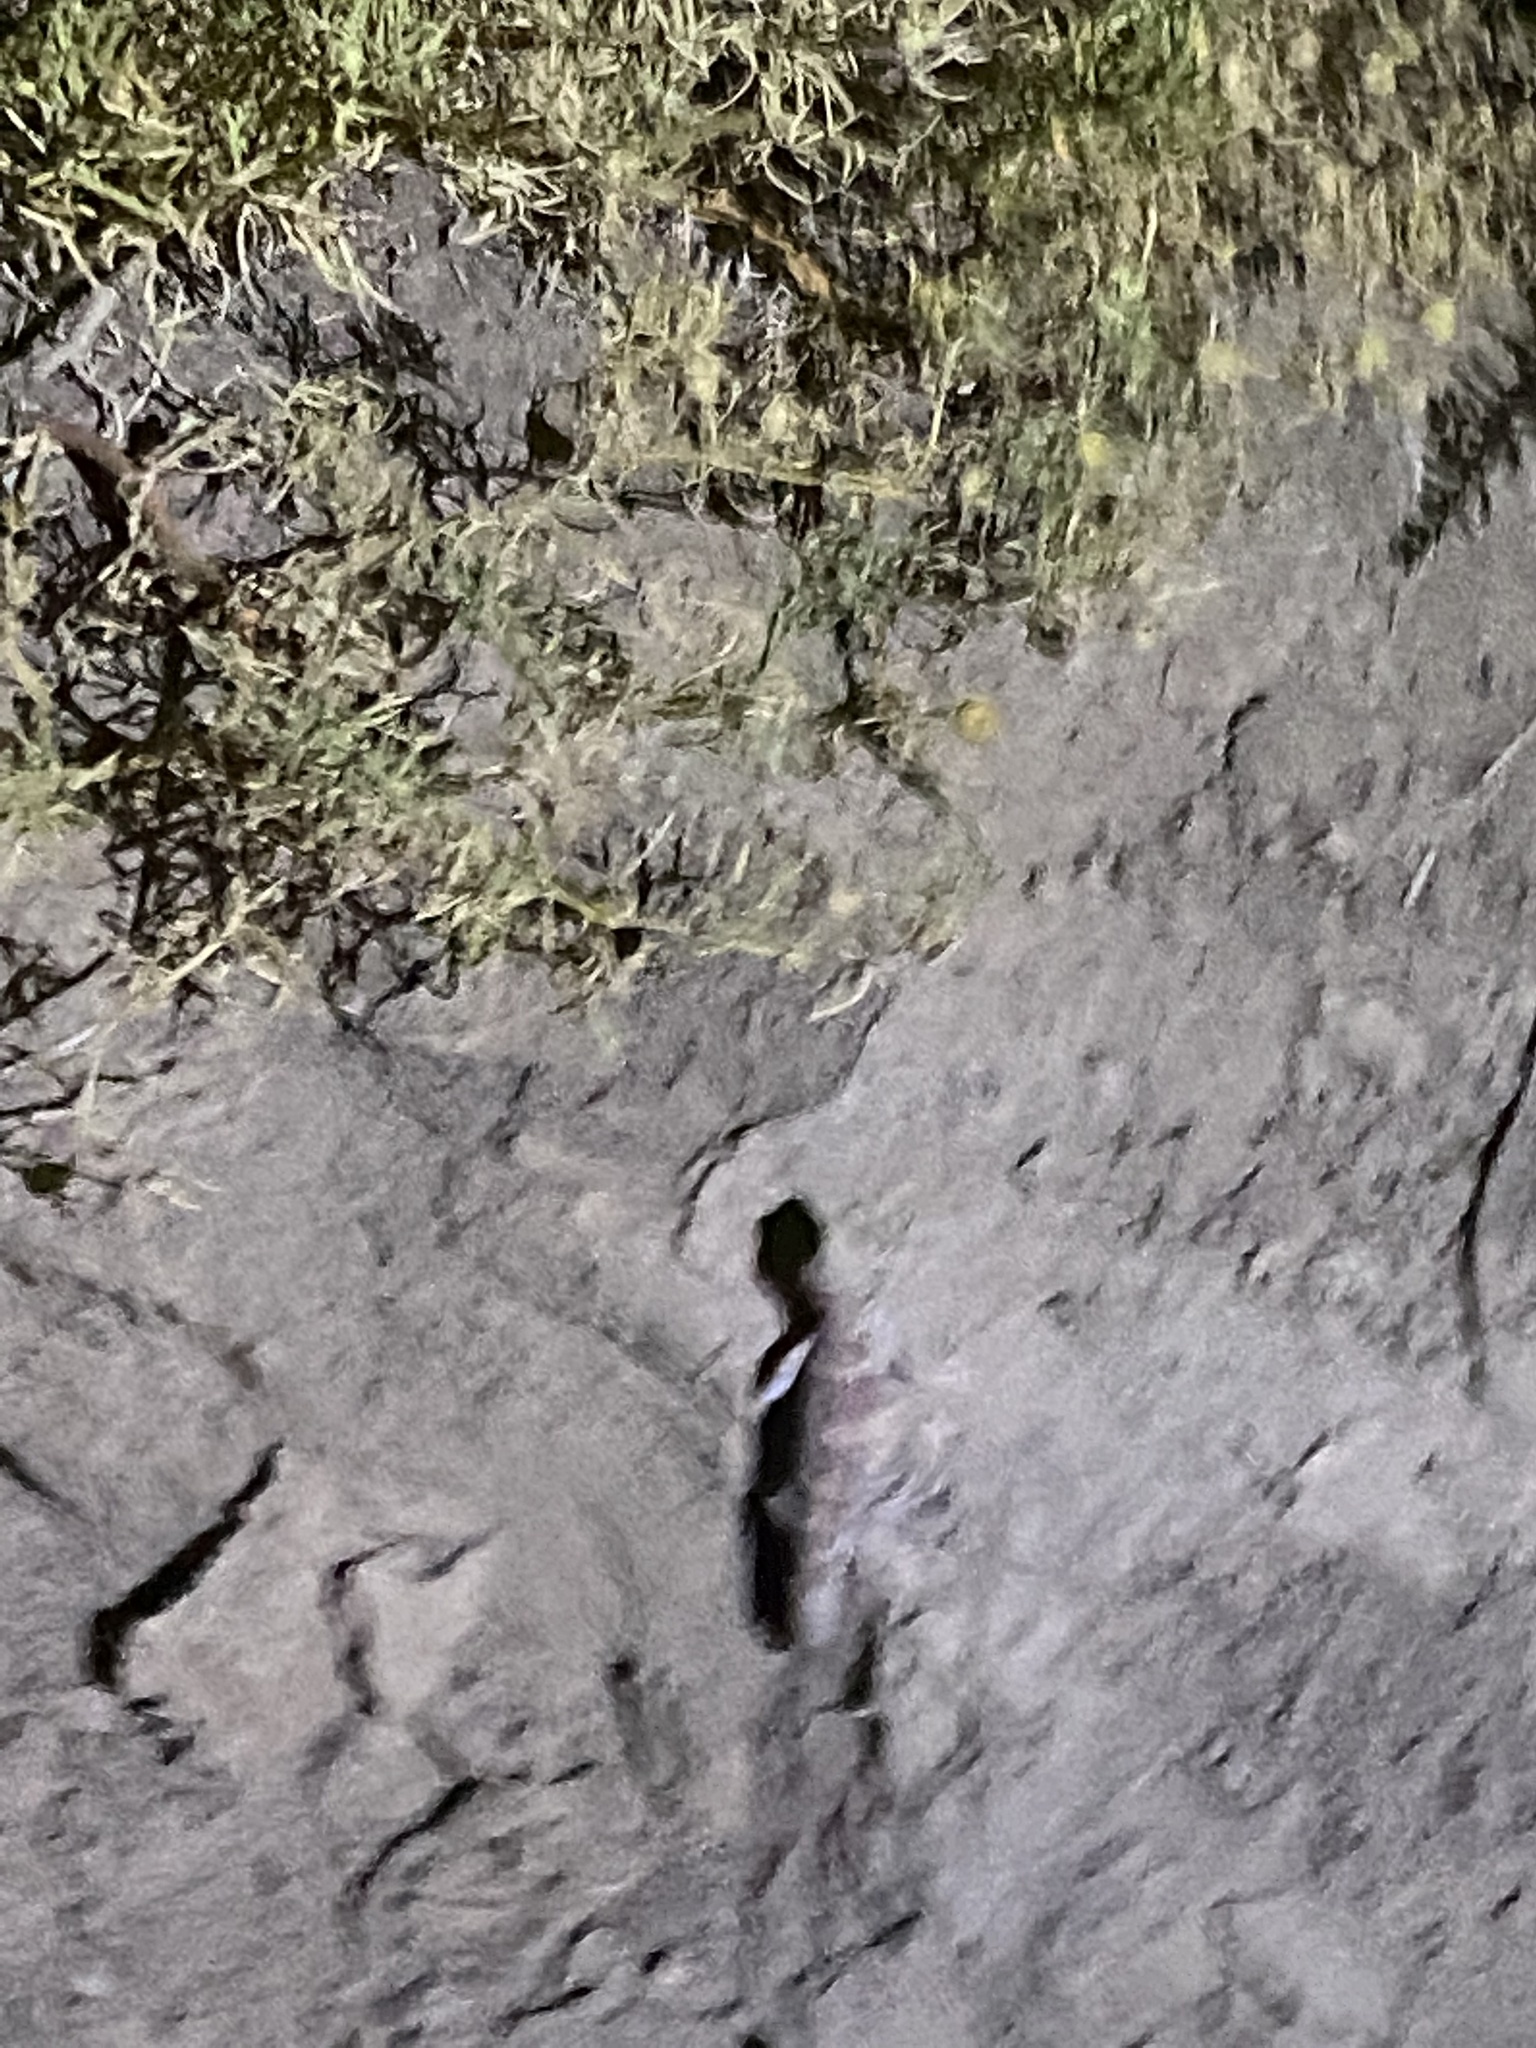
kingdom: Animalia
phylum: Chordata
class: Squamata
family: Sphaerodactylidae
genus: Teratoscincus
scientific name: Teratoscincus bedriagai
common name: Bedriaga's plate-tailed gecko
